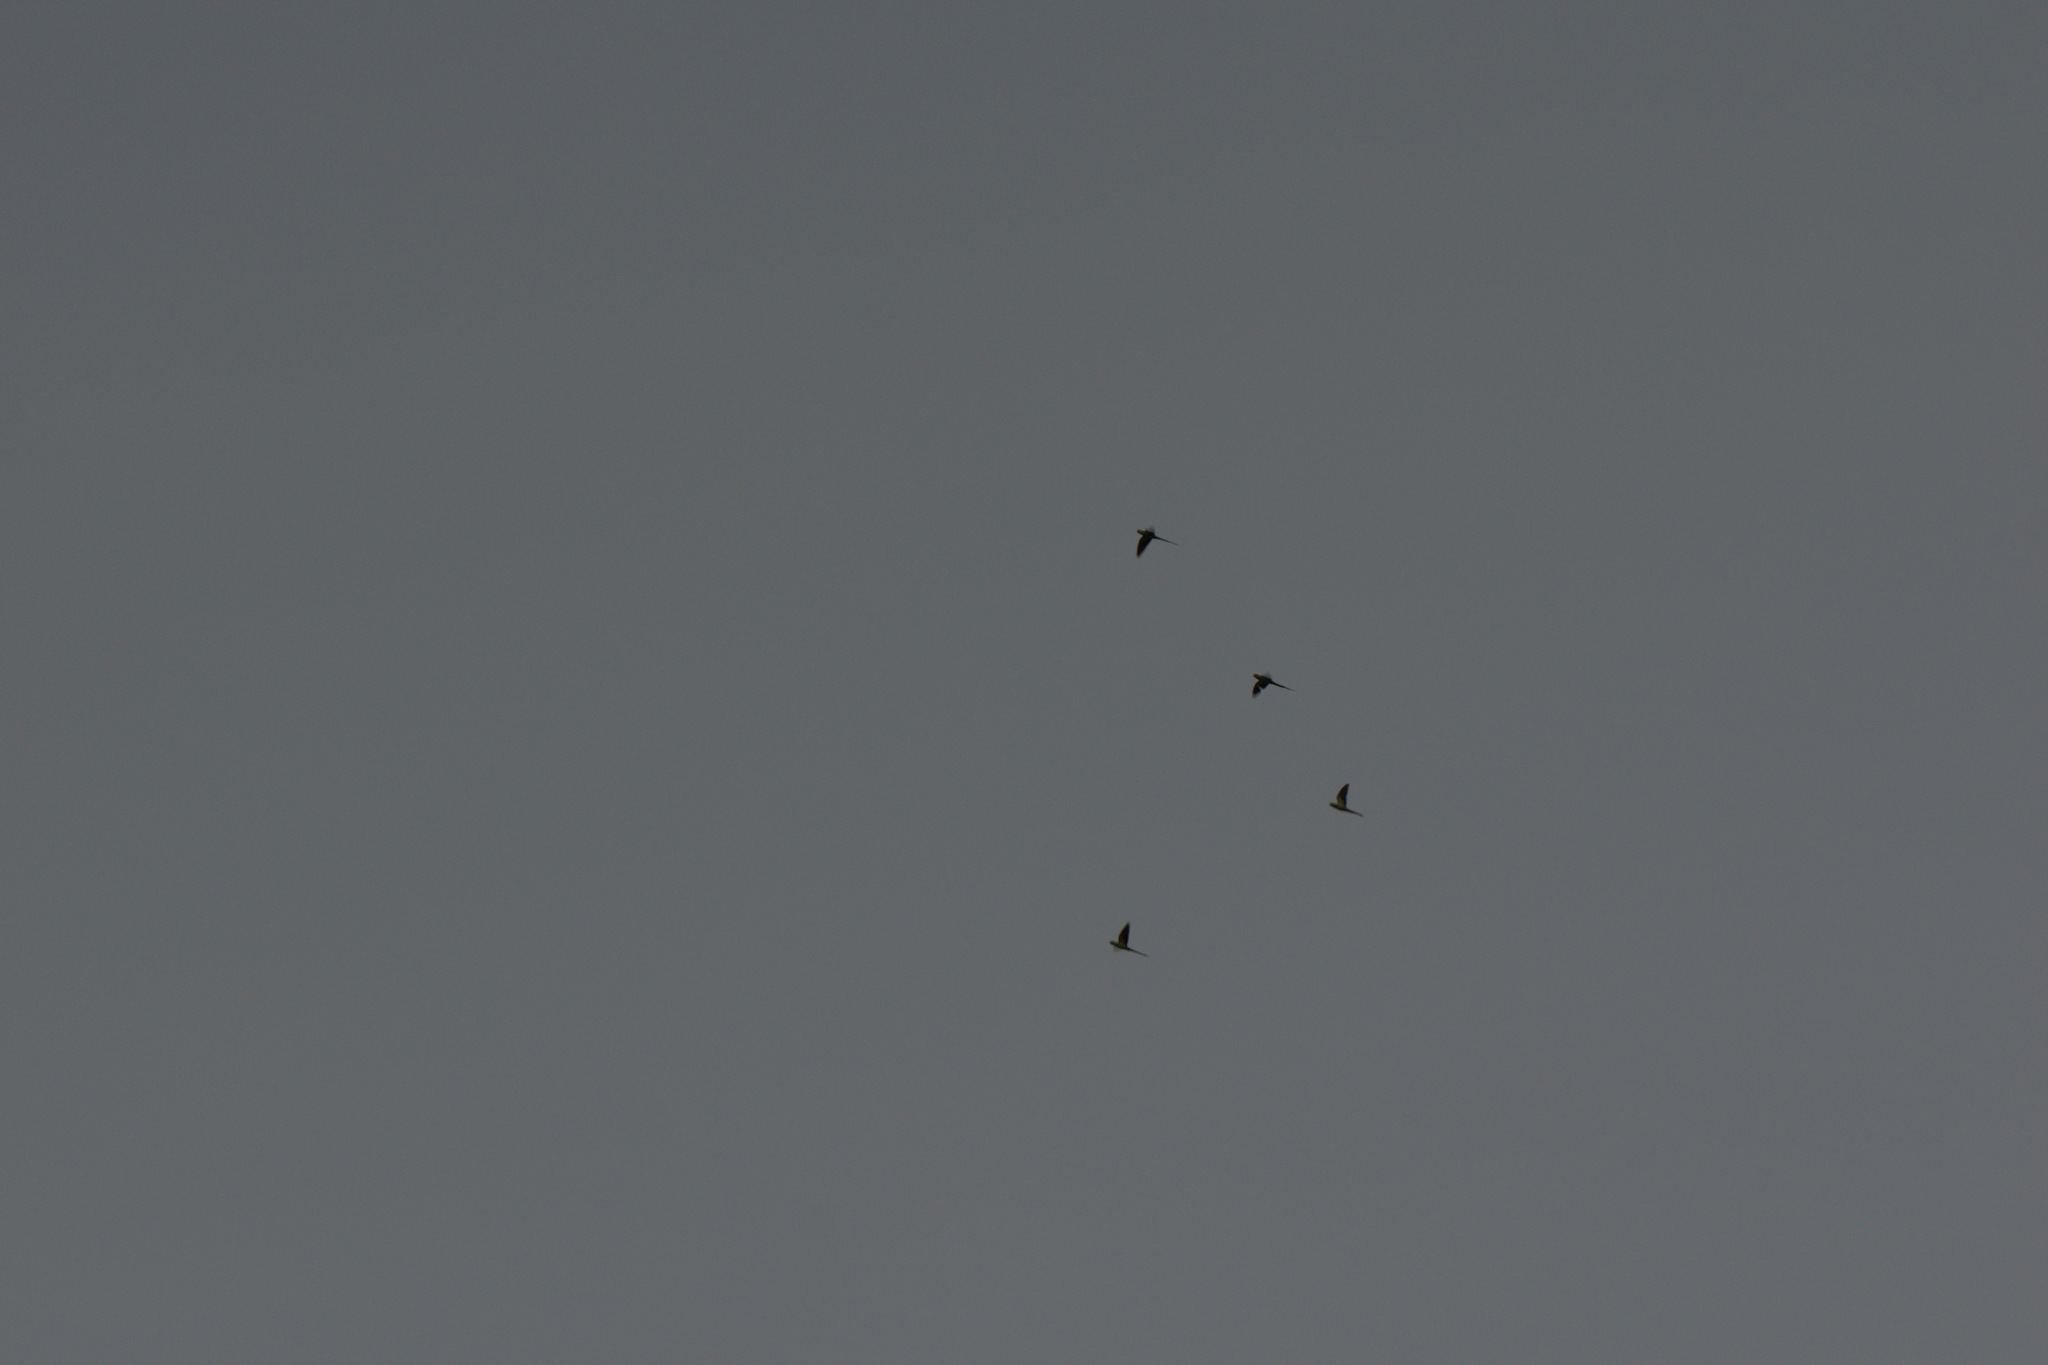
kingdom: Animalia
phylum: Chordata
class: Aves
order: Psittaciformes
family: Psittacidae
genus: Psittacula
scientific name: Psittacula krameri
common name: Rose-ringed parakeet
